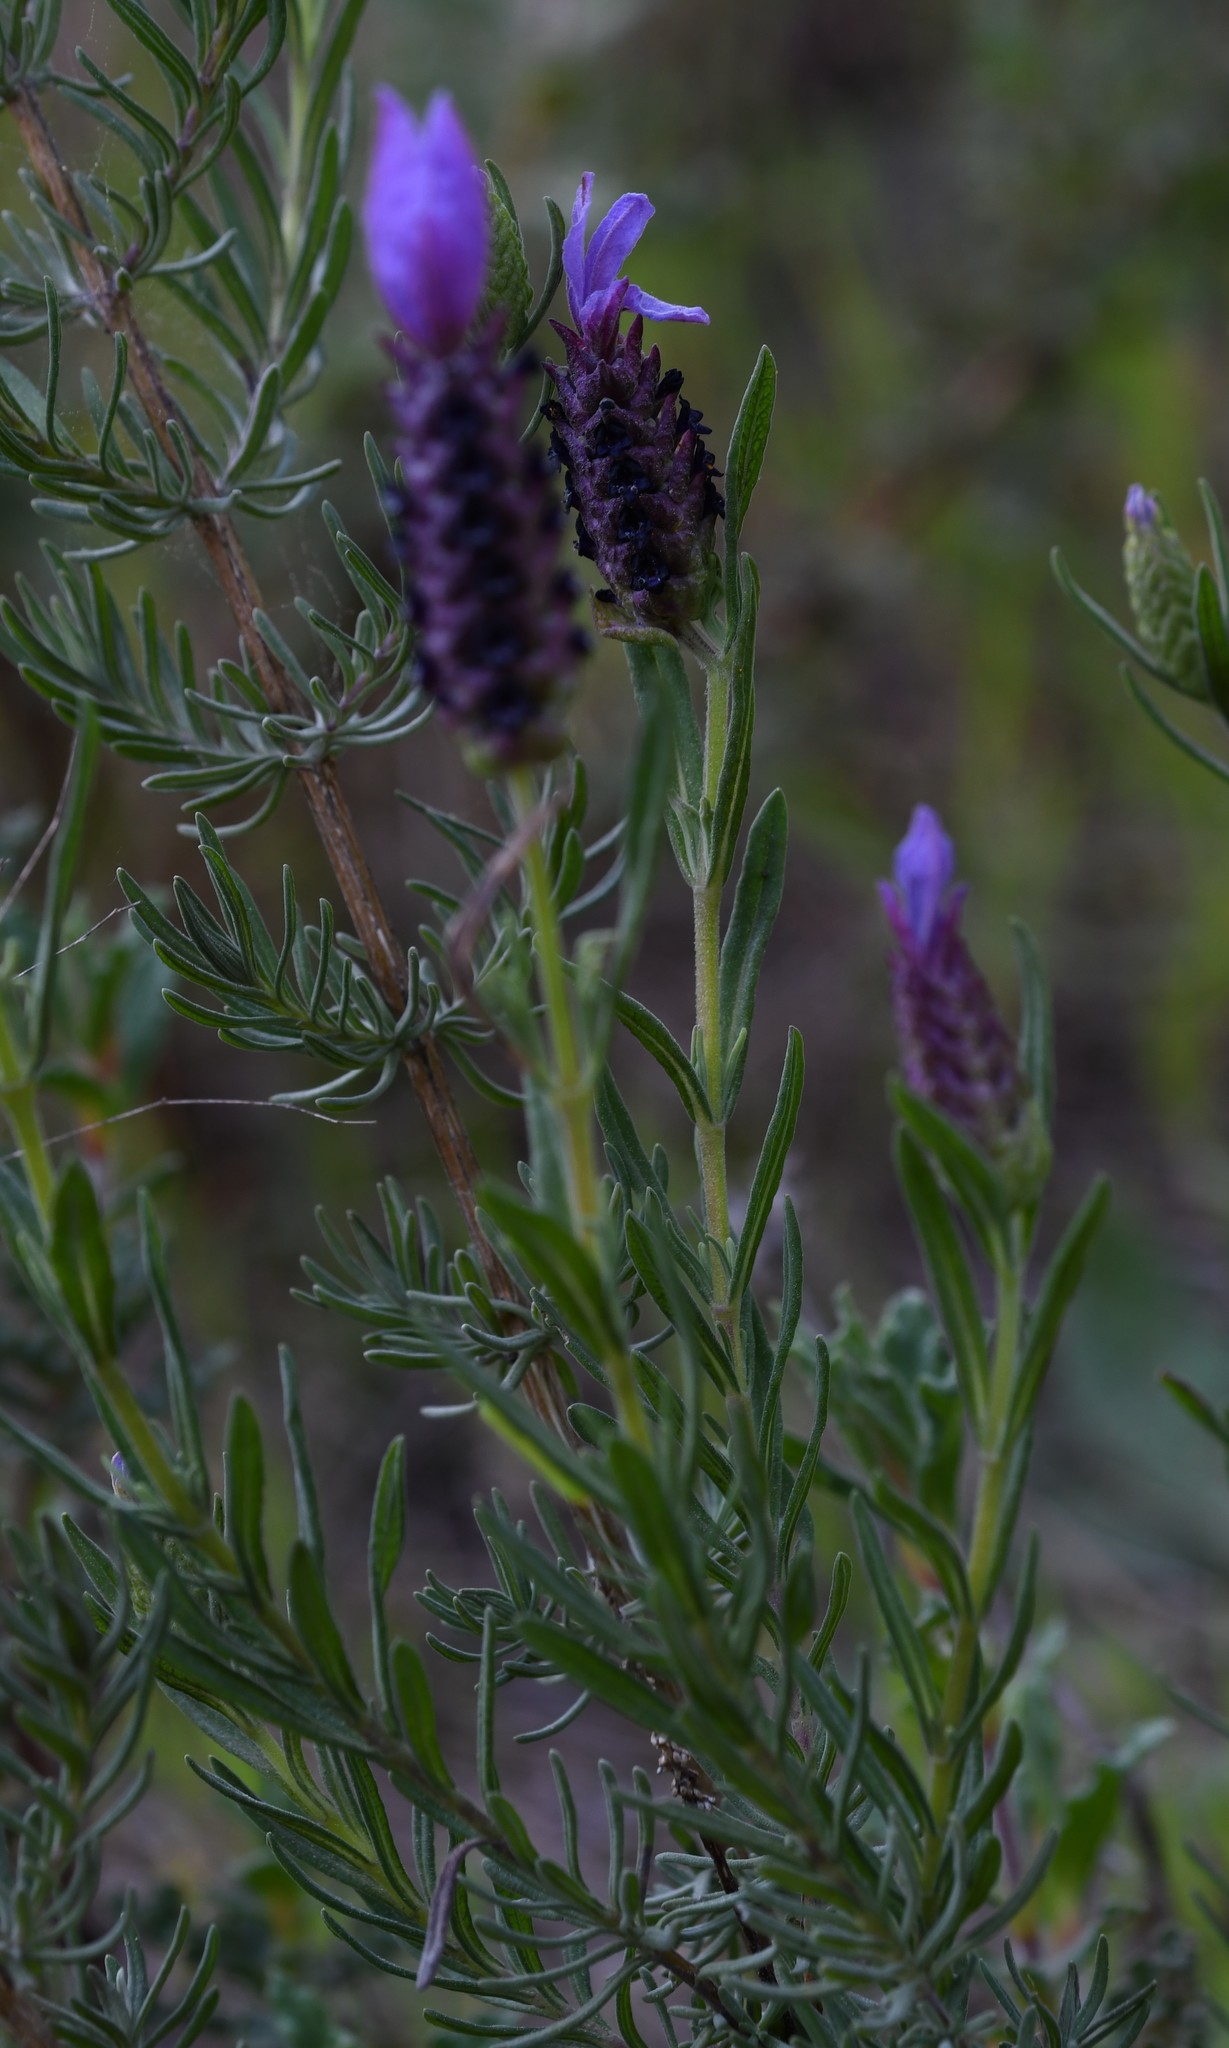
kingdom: Plantae
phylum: Tracheophyta
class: Magnoliopsida
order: Lamiales
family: Lamiaceae
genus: Lavandula
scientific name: Lavandula stoechas
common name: French lavender
